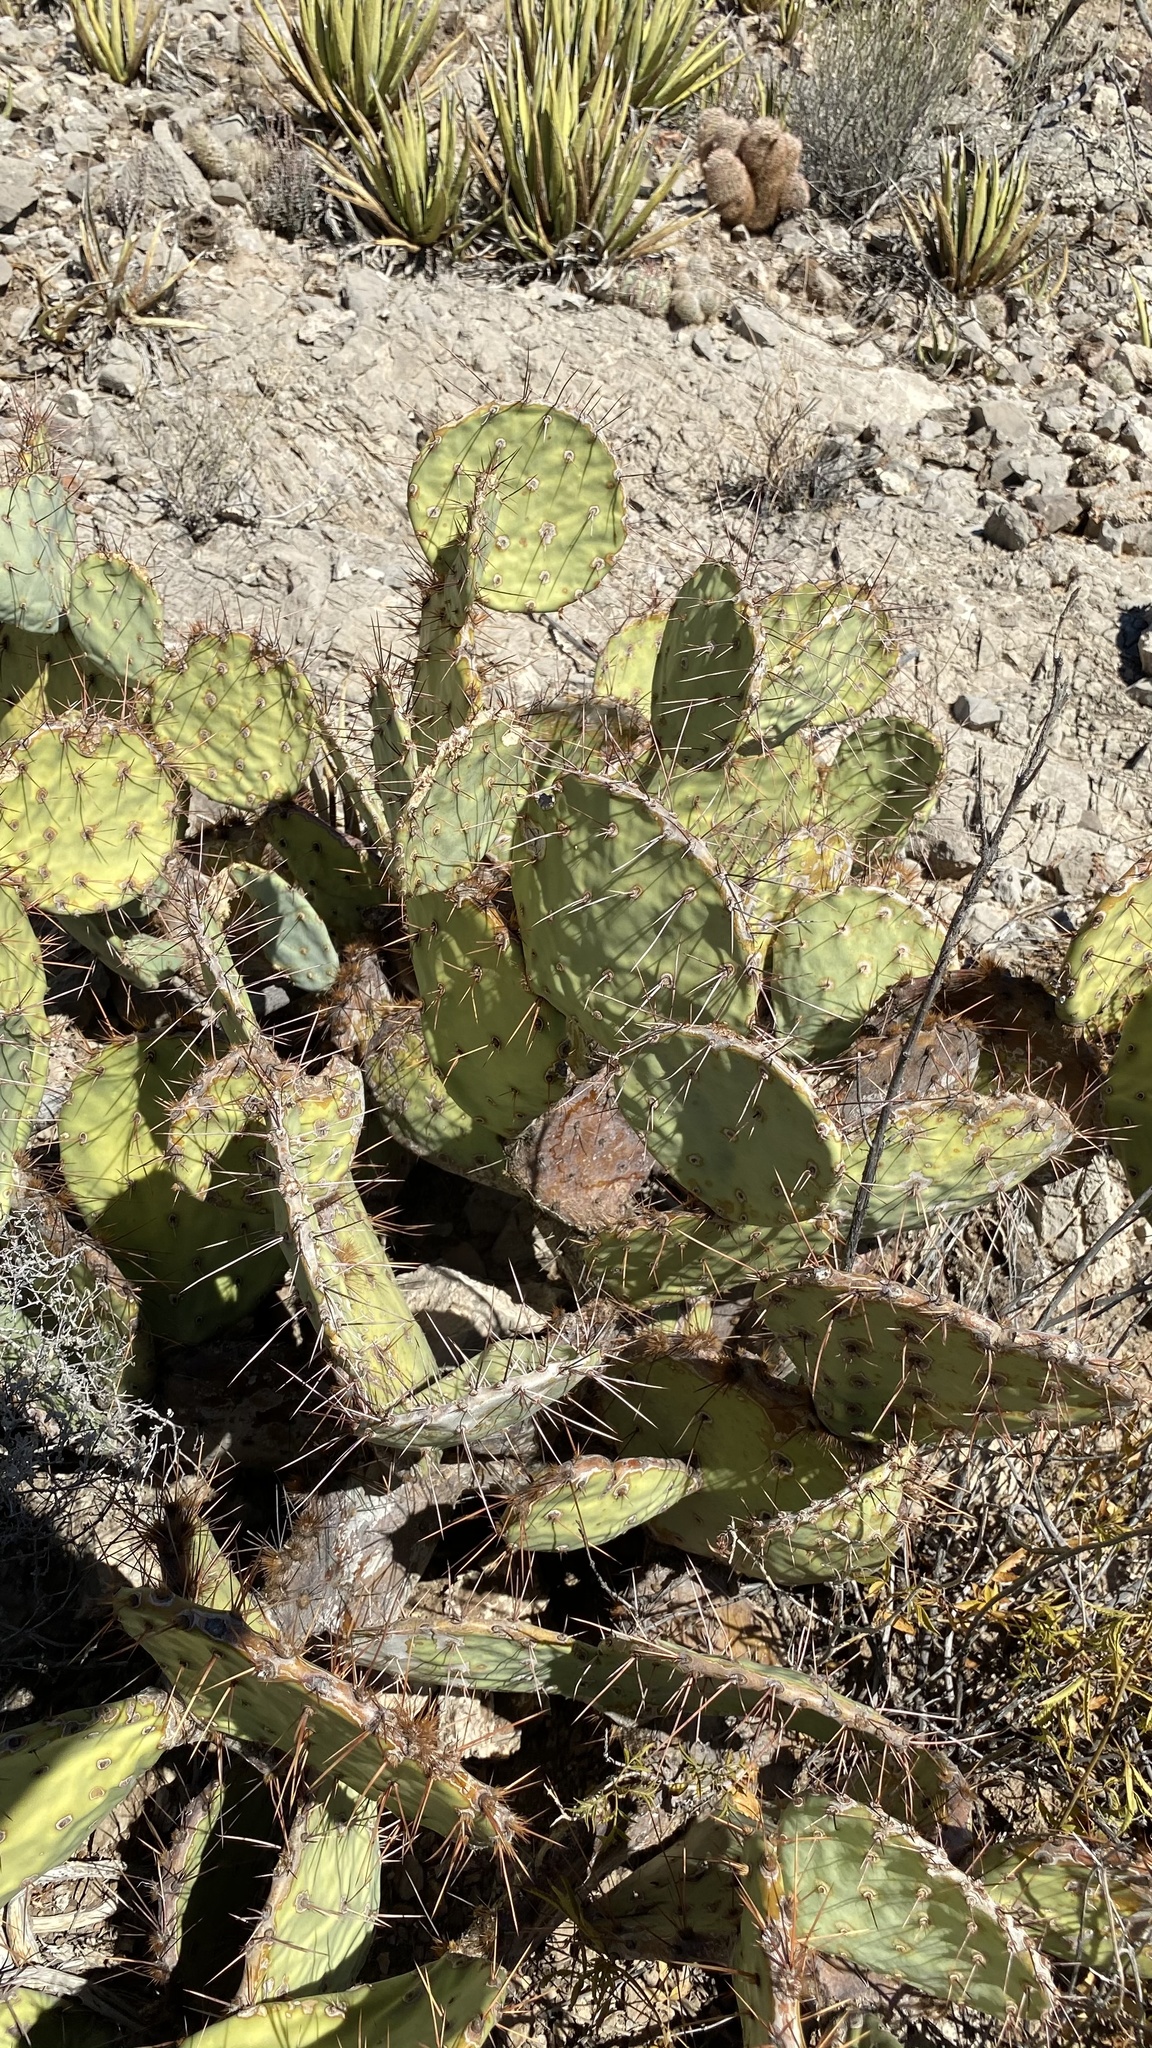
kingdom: Plantae
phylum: Tracheophyta
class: Magnoliopsida
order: Caryophyllales
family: Cactaceae
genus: Opuntia
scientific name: Opuntia engelmannii
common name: Cactus-apple
